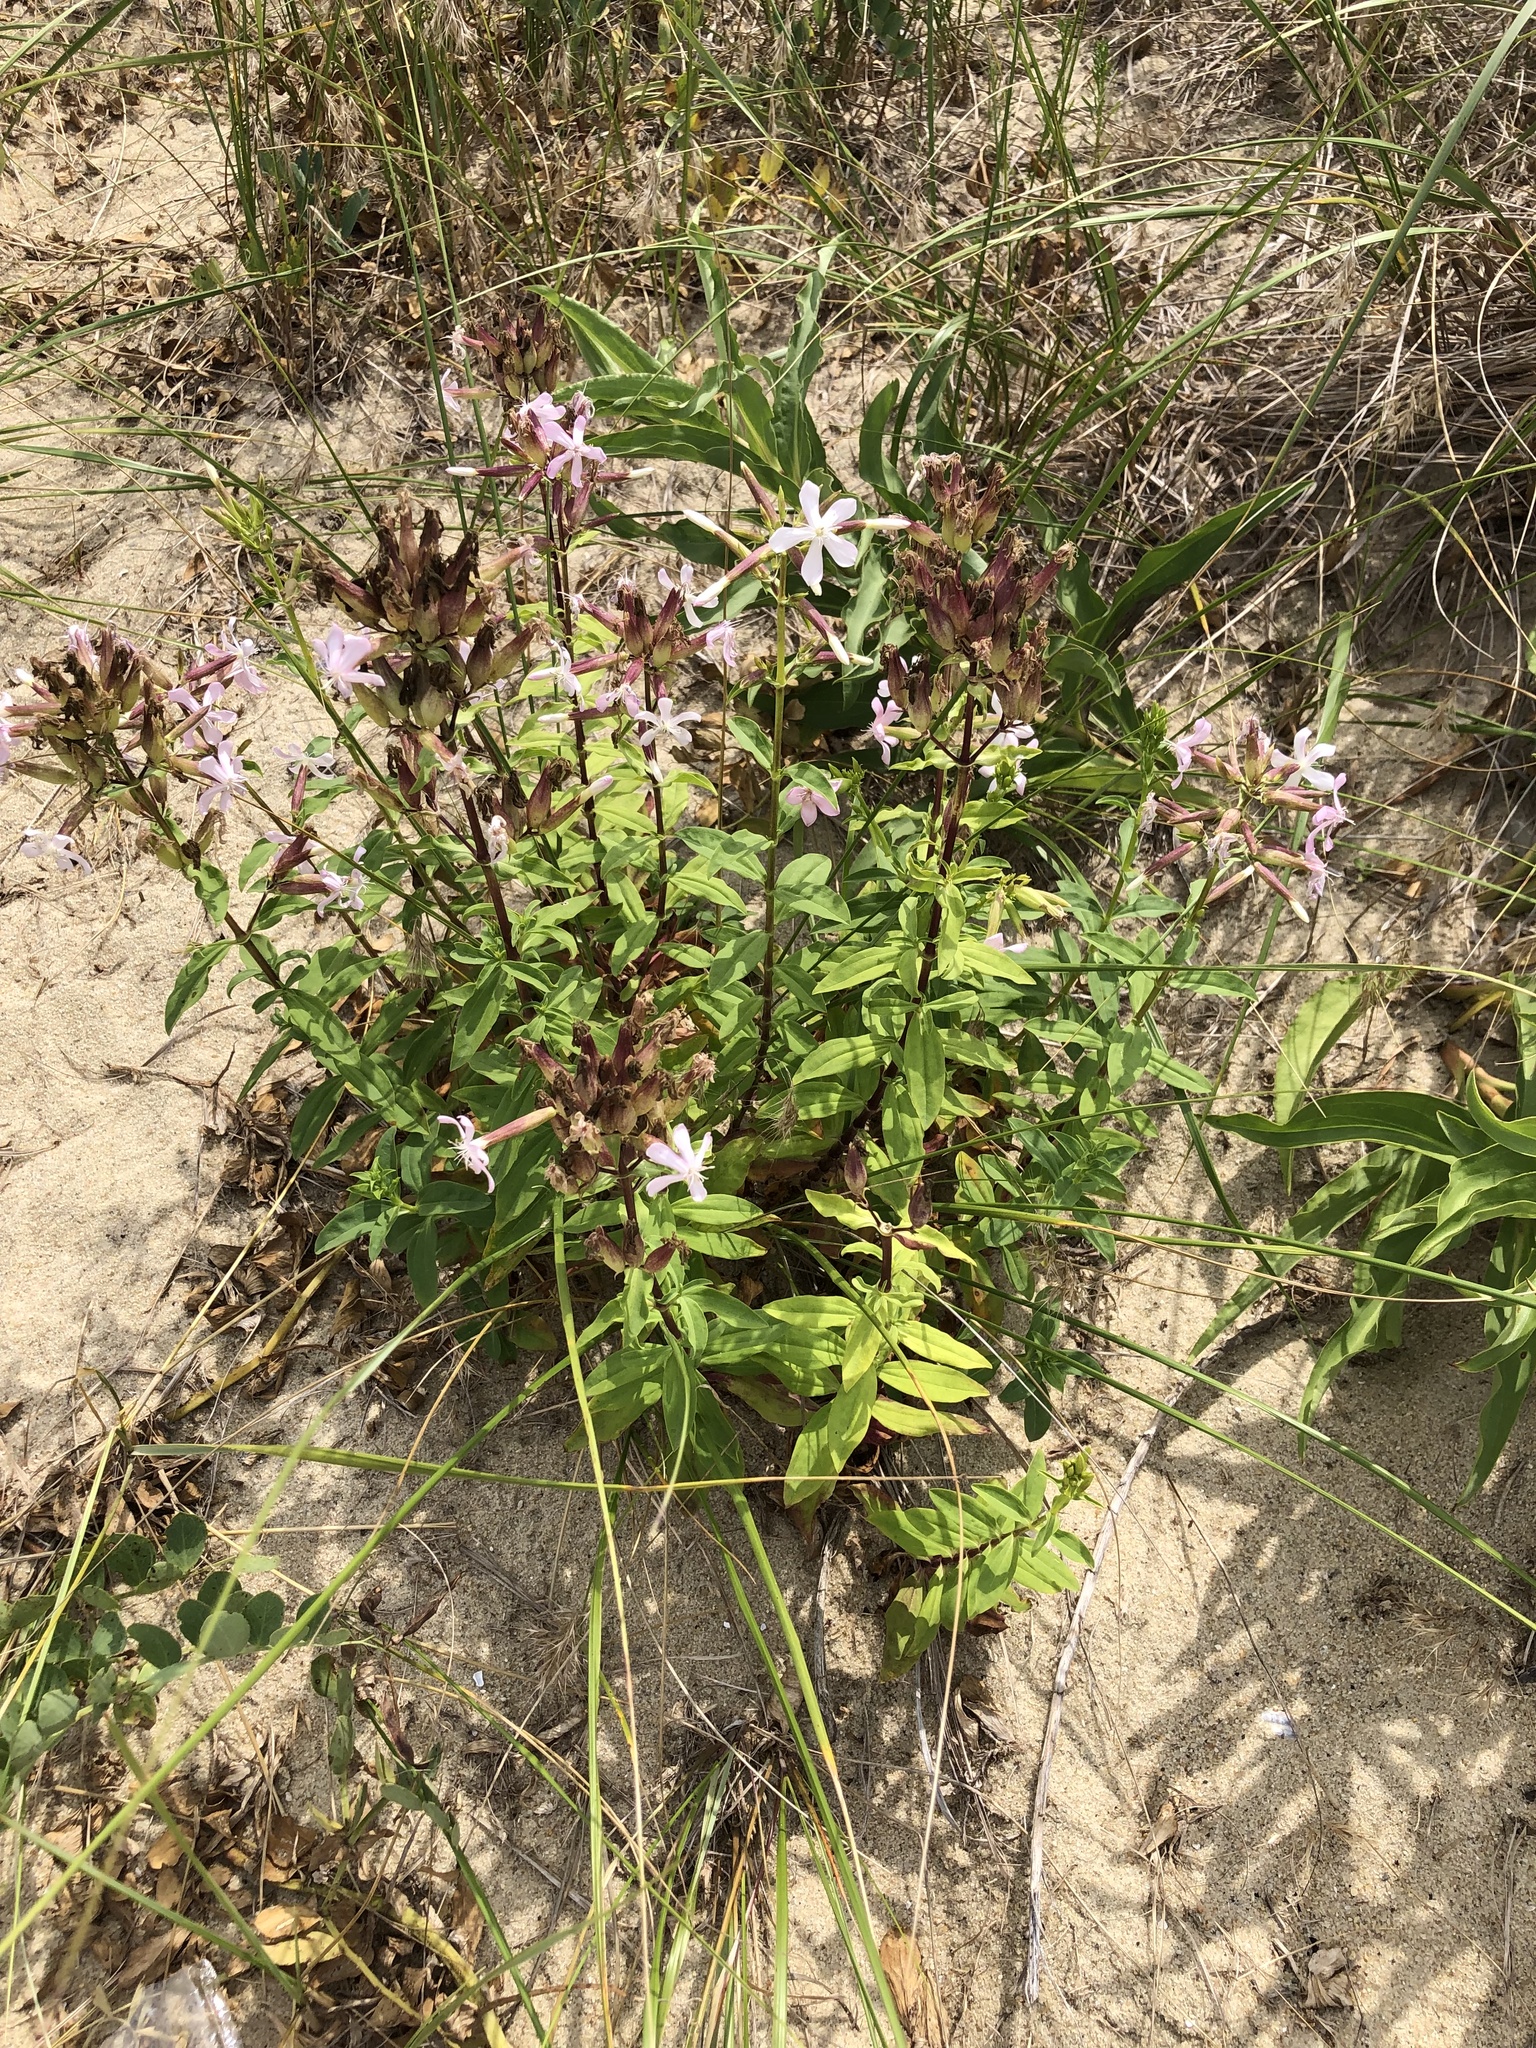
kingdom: Plantae
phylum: Tracheophyta
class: Magnoliopsida
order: Caryophyllales
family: Caryophyllaceae
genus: Saponaria
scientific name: Saponaria officinalis
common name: Soapwort
